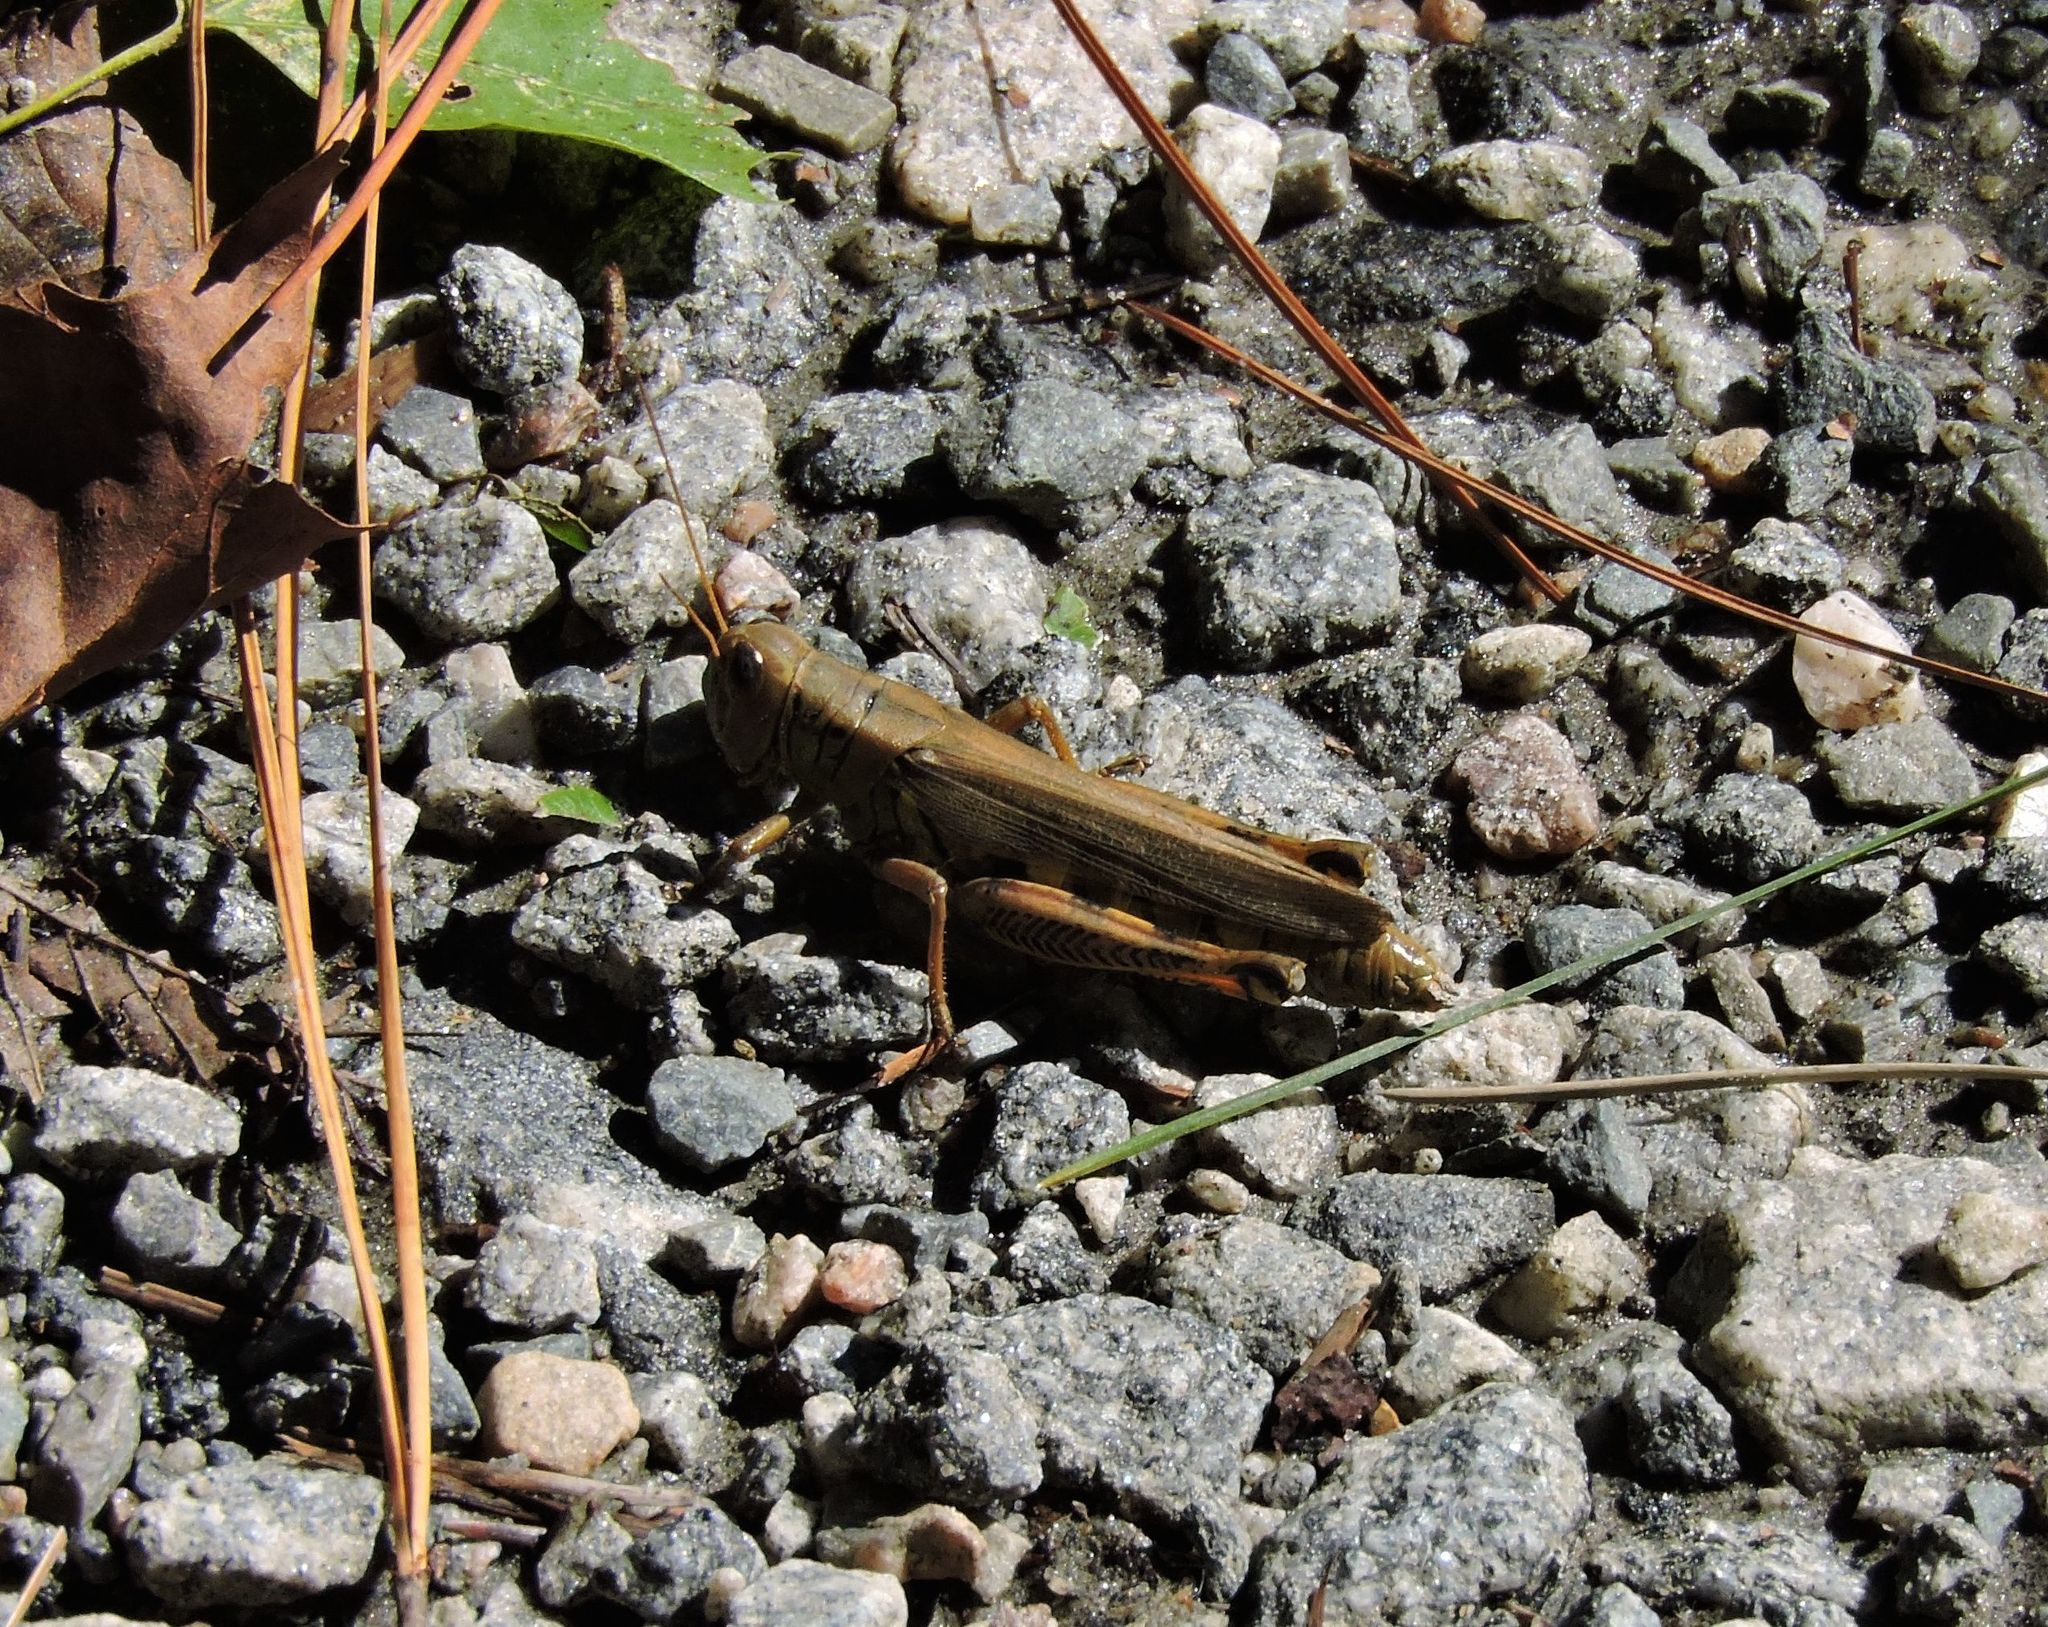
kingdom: Animalia
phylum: Arthropoda
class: Insecta
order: Orthoptera
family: Acrididae
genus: Melanoplus
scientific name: Melanoplus differentialis
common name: Differential grasshopper
